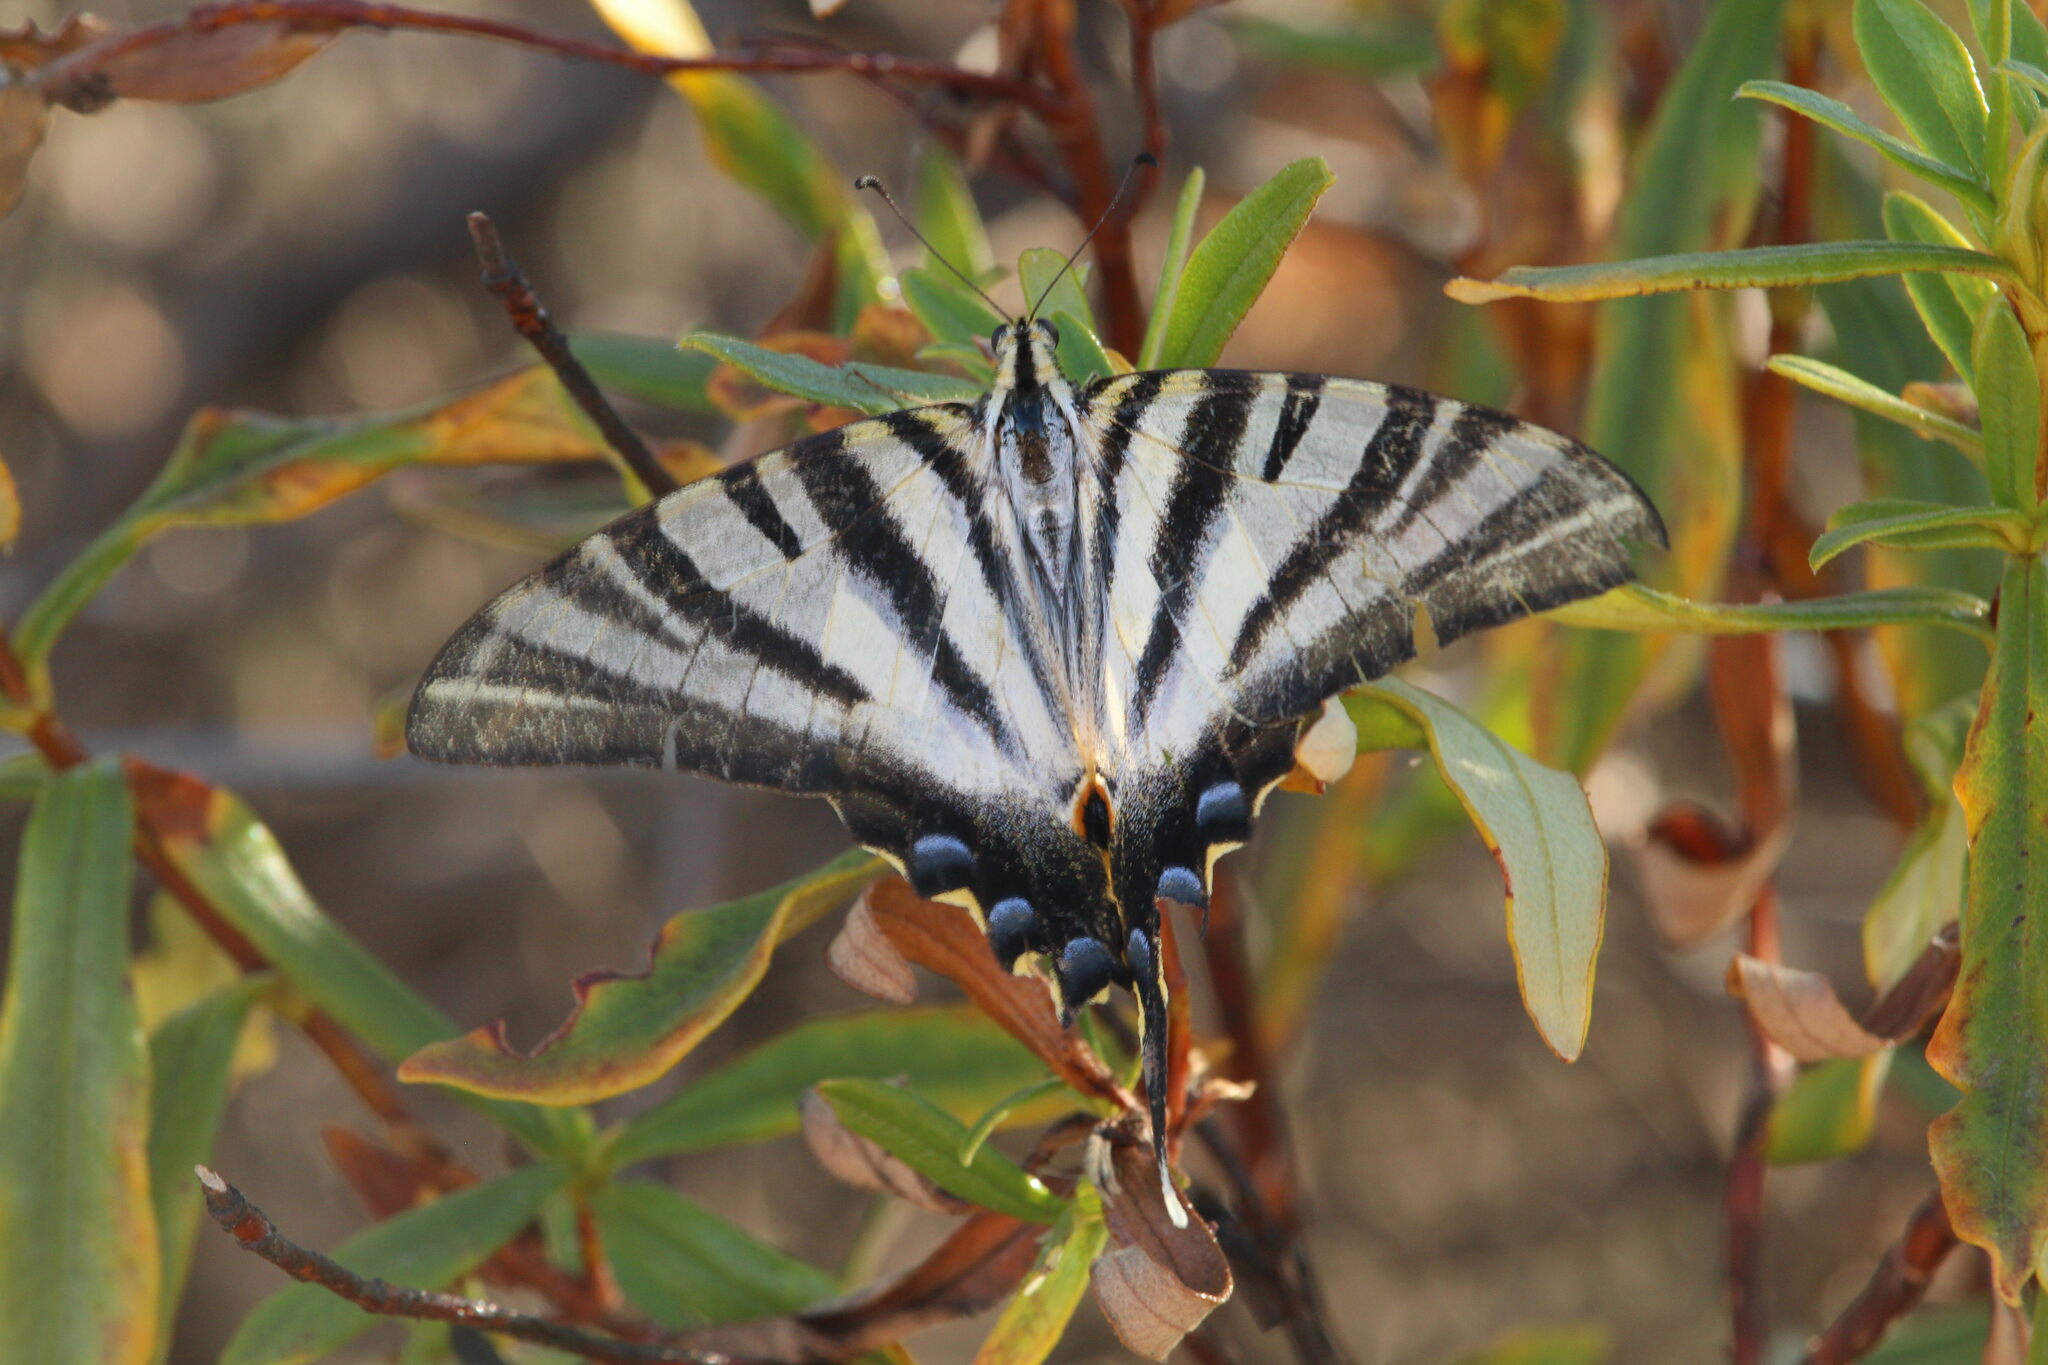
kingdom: Animalia
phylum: Arthropoda
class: Insecta
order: Lepidoptera
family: Papilionidae
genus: Iphiclides
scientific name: Iphiclides feisthamelii
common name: Iberian scarce swallowtail
